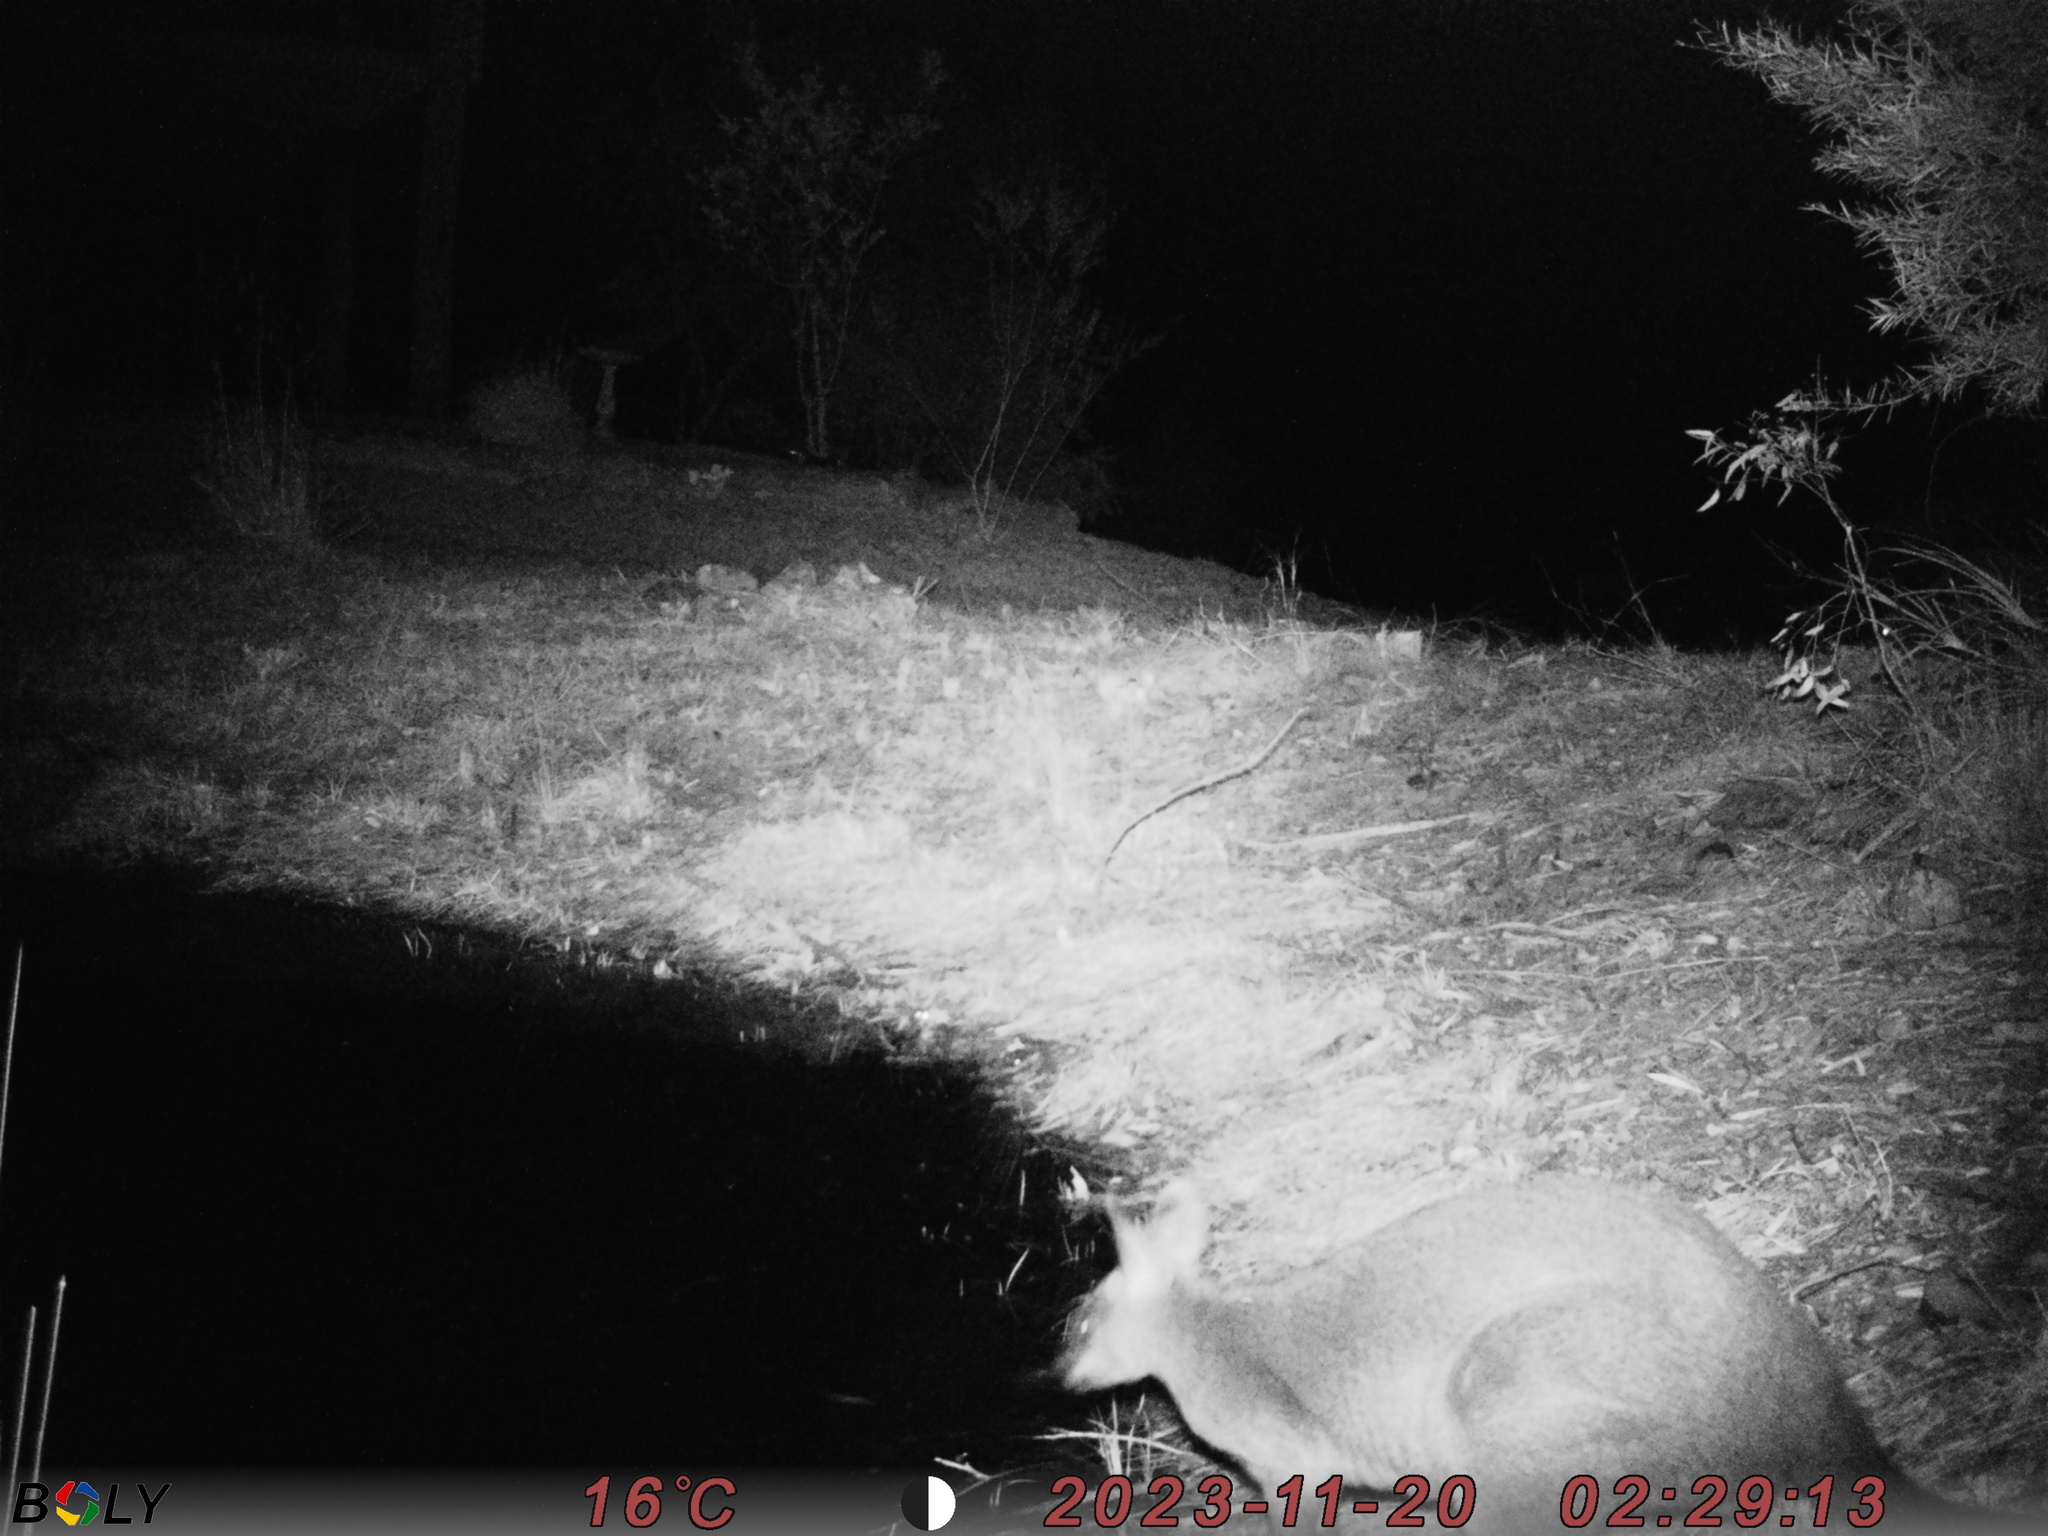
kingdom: Animalia
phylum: Chordata
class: Mammalia
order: Diprotodontia
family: Macropodidae
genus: Wallabia
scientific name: Wallabia bicolor
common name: Swamp wallaby
